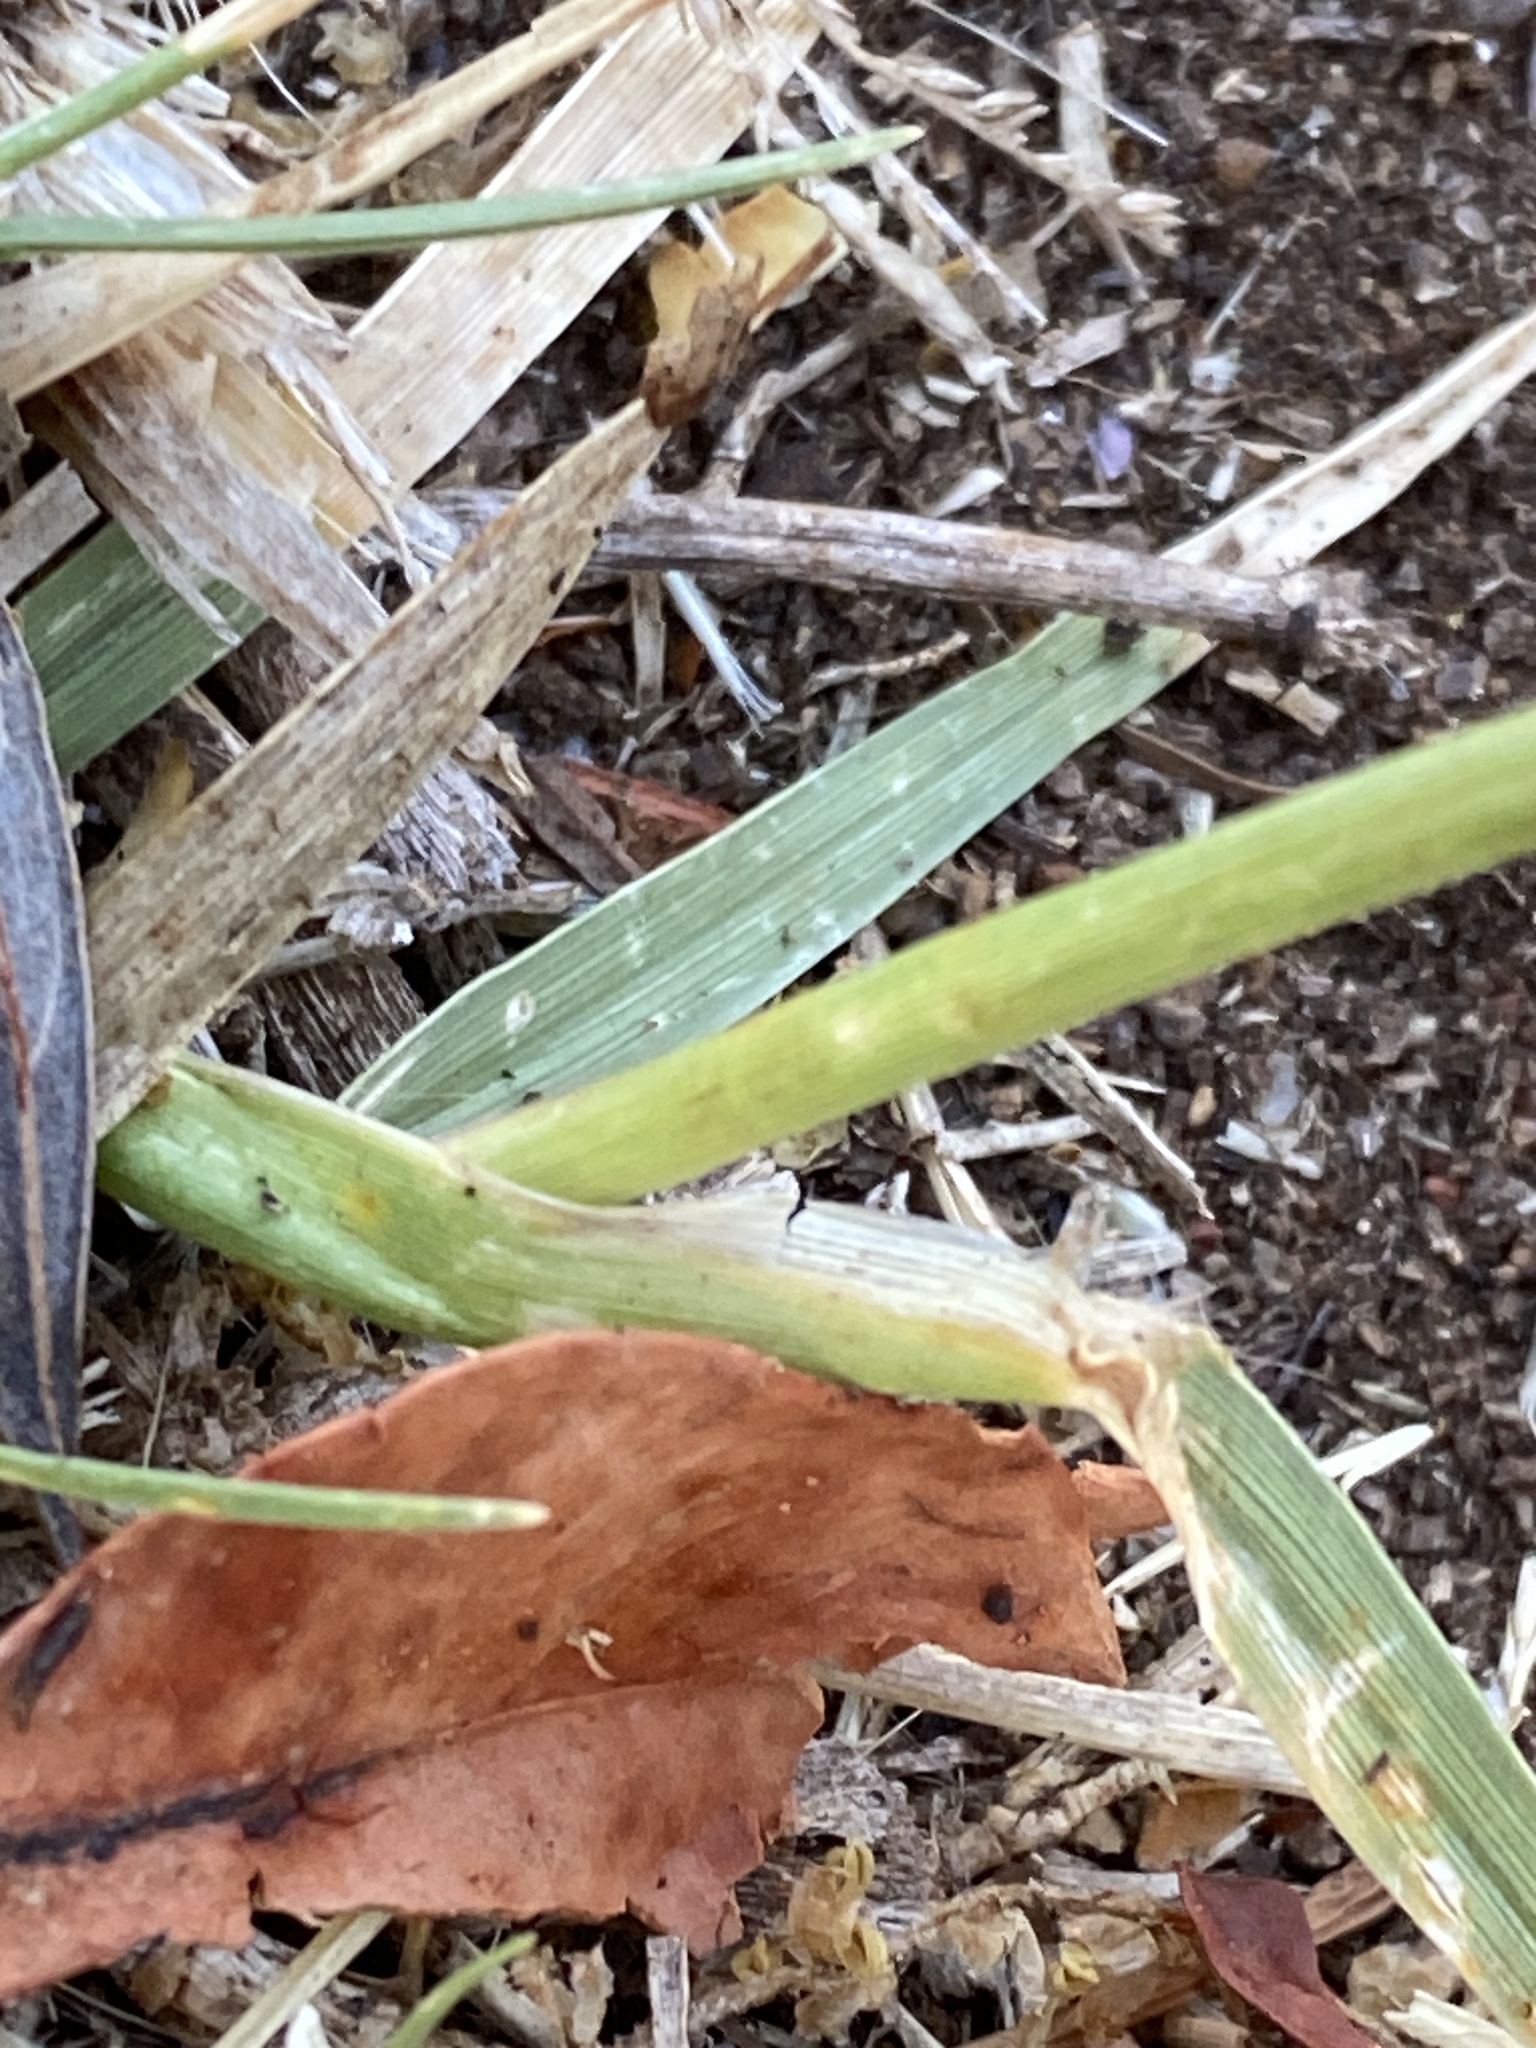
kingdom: Plantae
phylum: Tracheophyta
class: Liliopsida
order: Poales
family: Poaceae
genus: Cenchrus
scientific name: Cenchrus longisetus
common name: Feathertop
